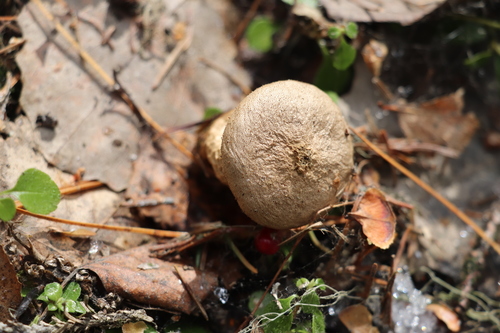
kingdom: Fungi
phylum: Basidiomycota
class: Agaricomycetes
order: Agaricales
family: Lycoperdaceae
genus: Lycoperdon
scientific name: Lycoperdon
